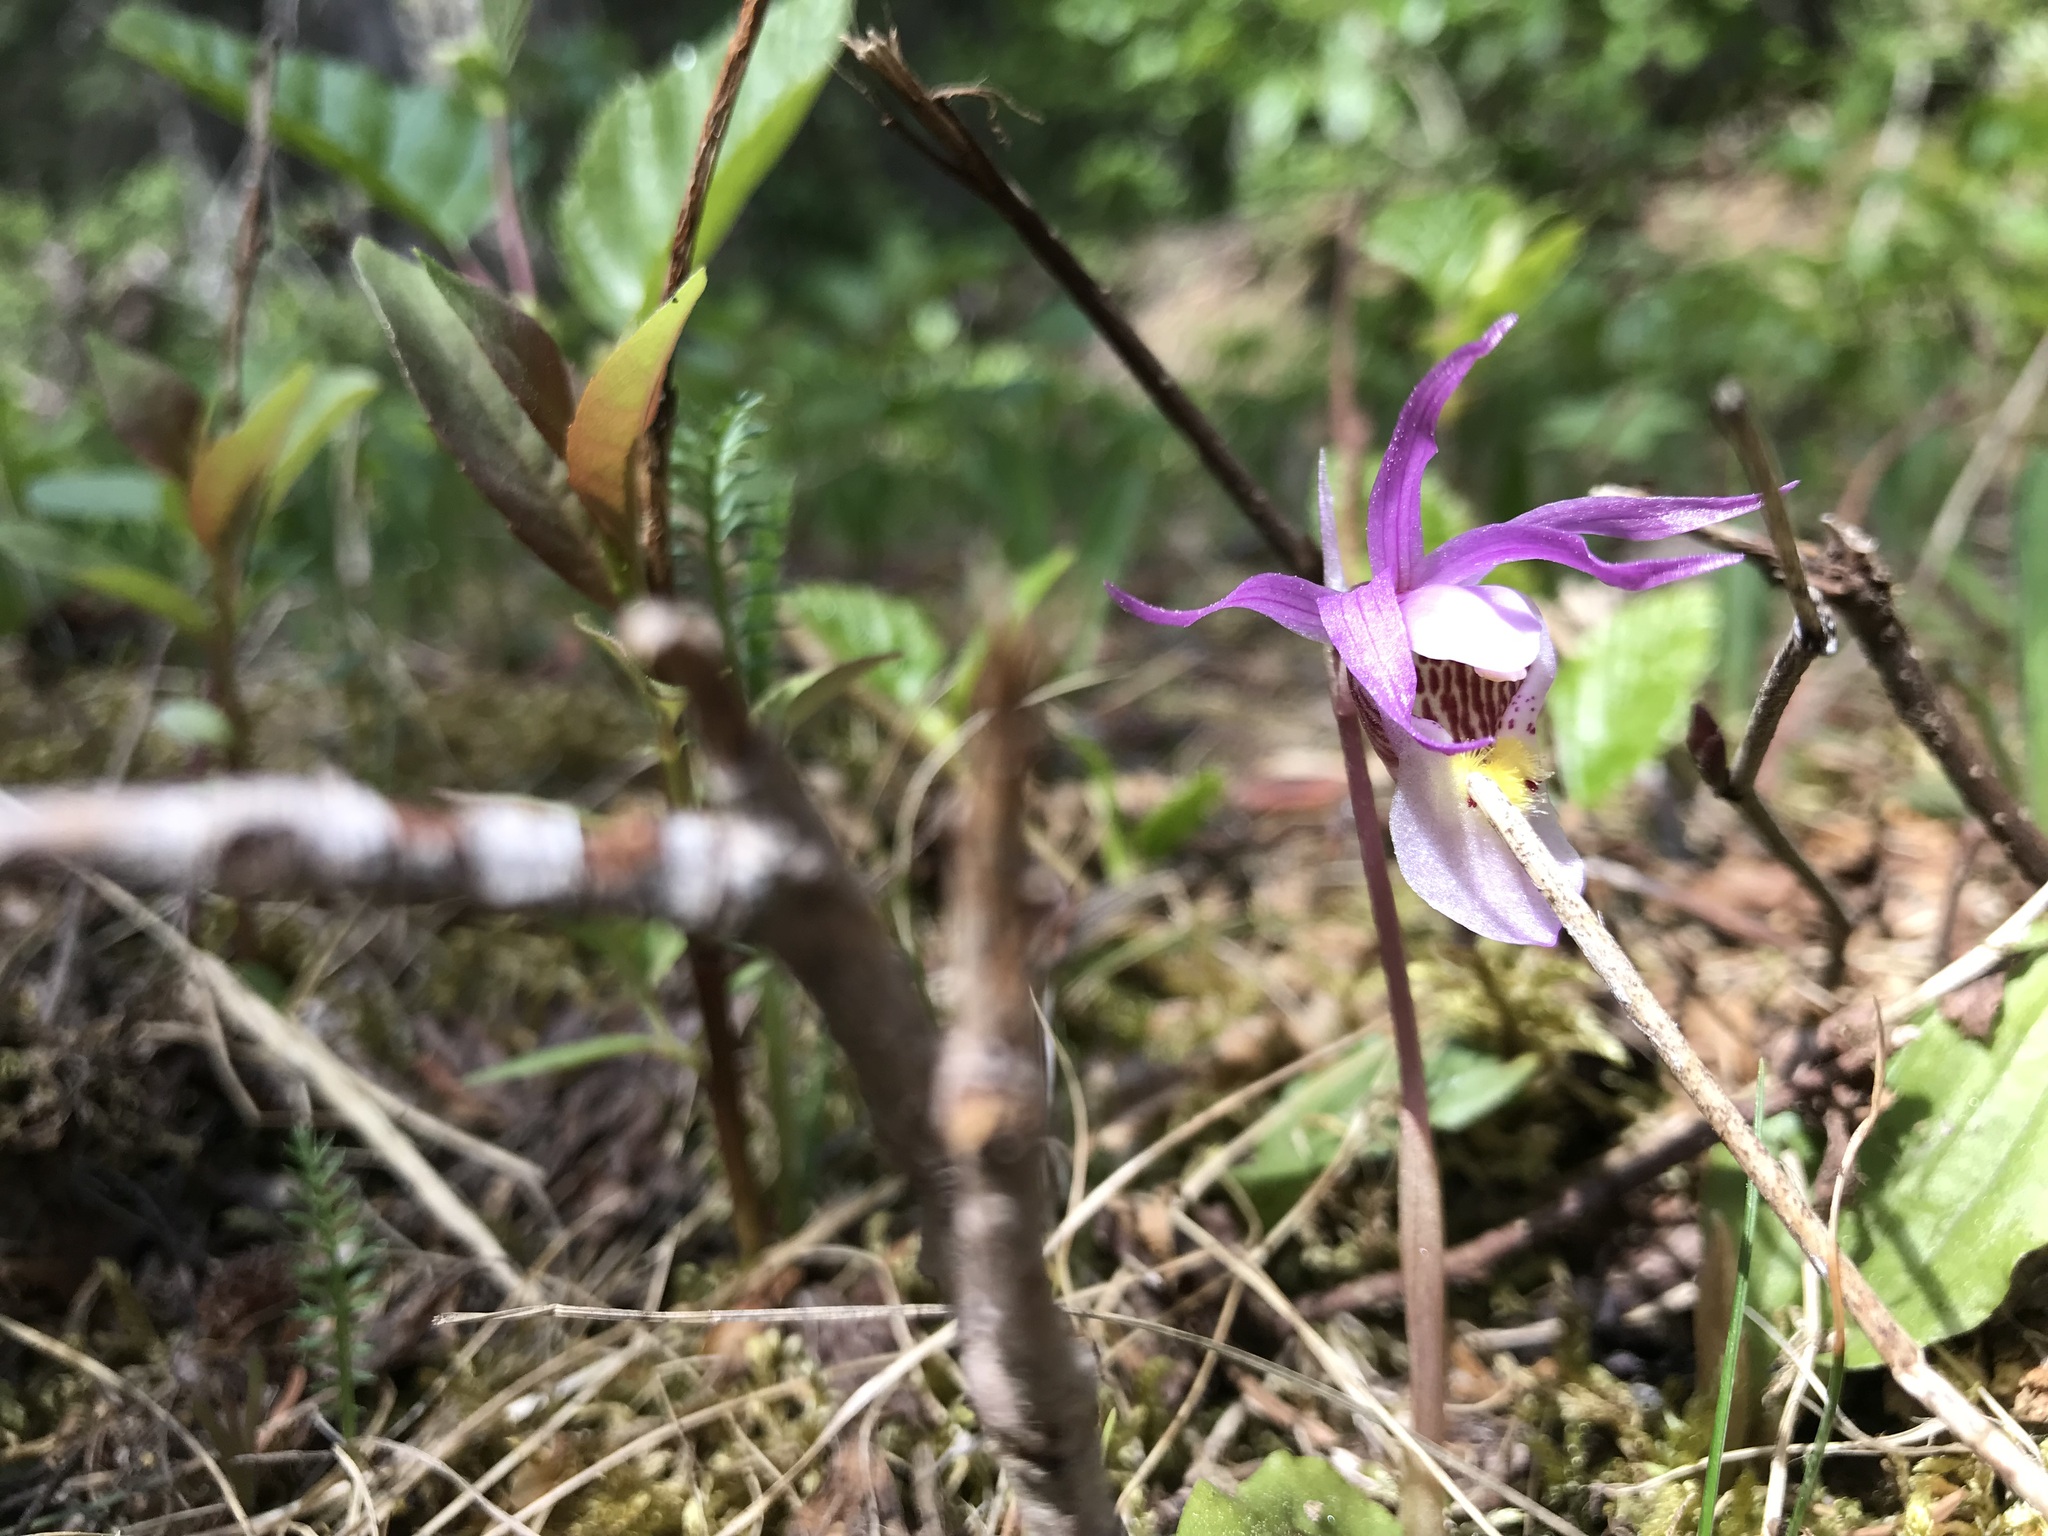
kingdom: Plantae
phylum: Tracheophyta
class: Liliopsida
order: Asparagales
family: Orchidaceae
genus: Calypso
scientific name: Calypso bulbosa
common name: Calypso
